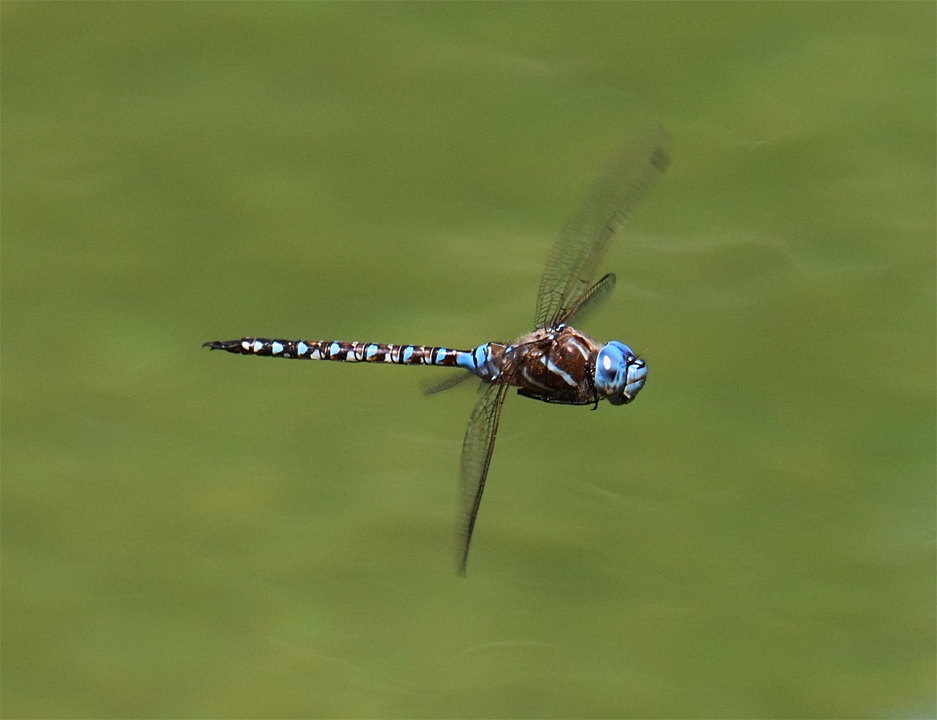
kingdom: Animalia
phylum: Arthropoda
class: Insecta
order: Odonata
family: Aeshnidae
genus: Rhionaeschna
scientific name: Rhionaeschna multicolor
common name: Blue-eyed darner
